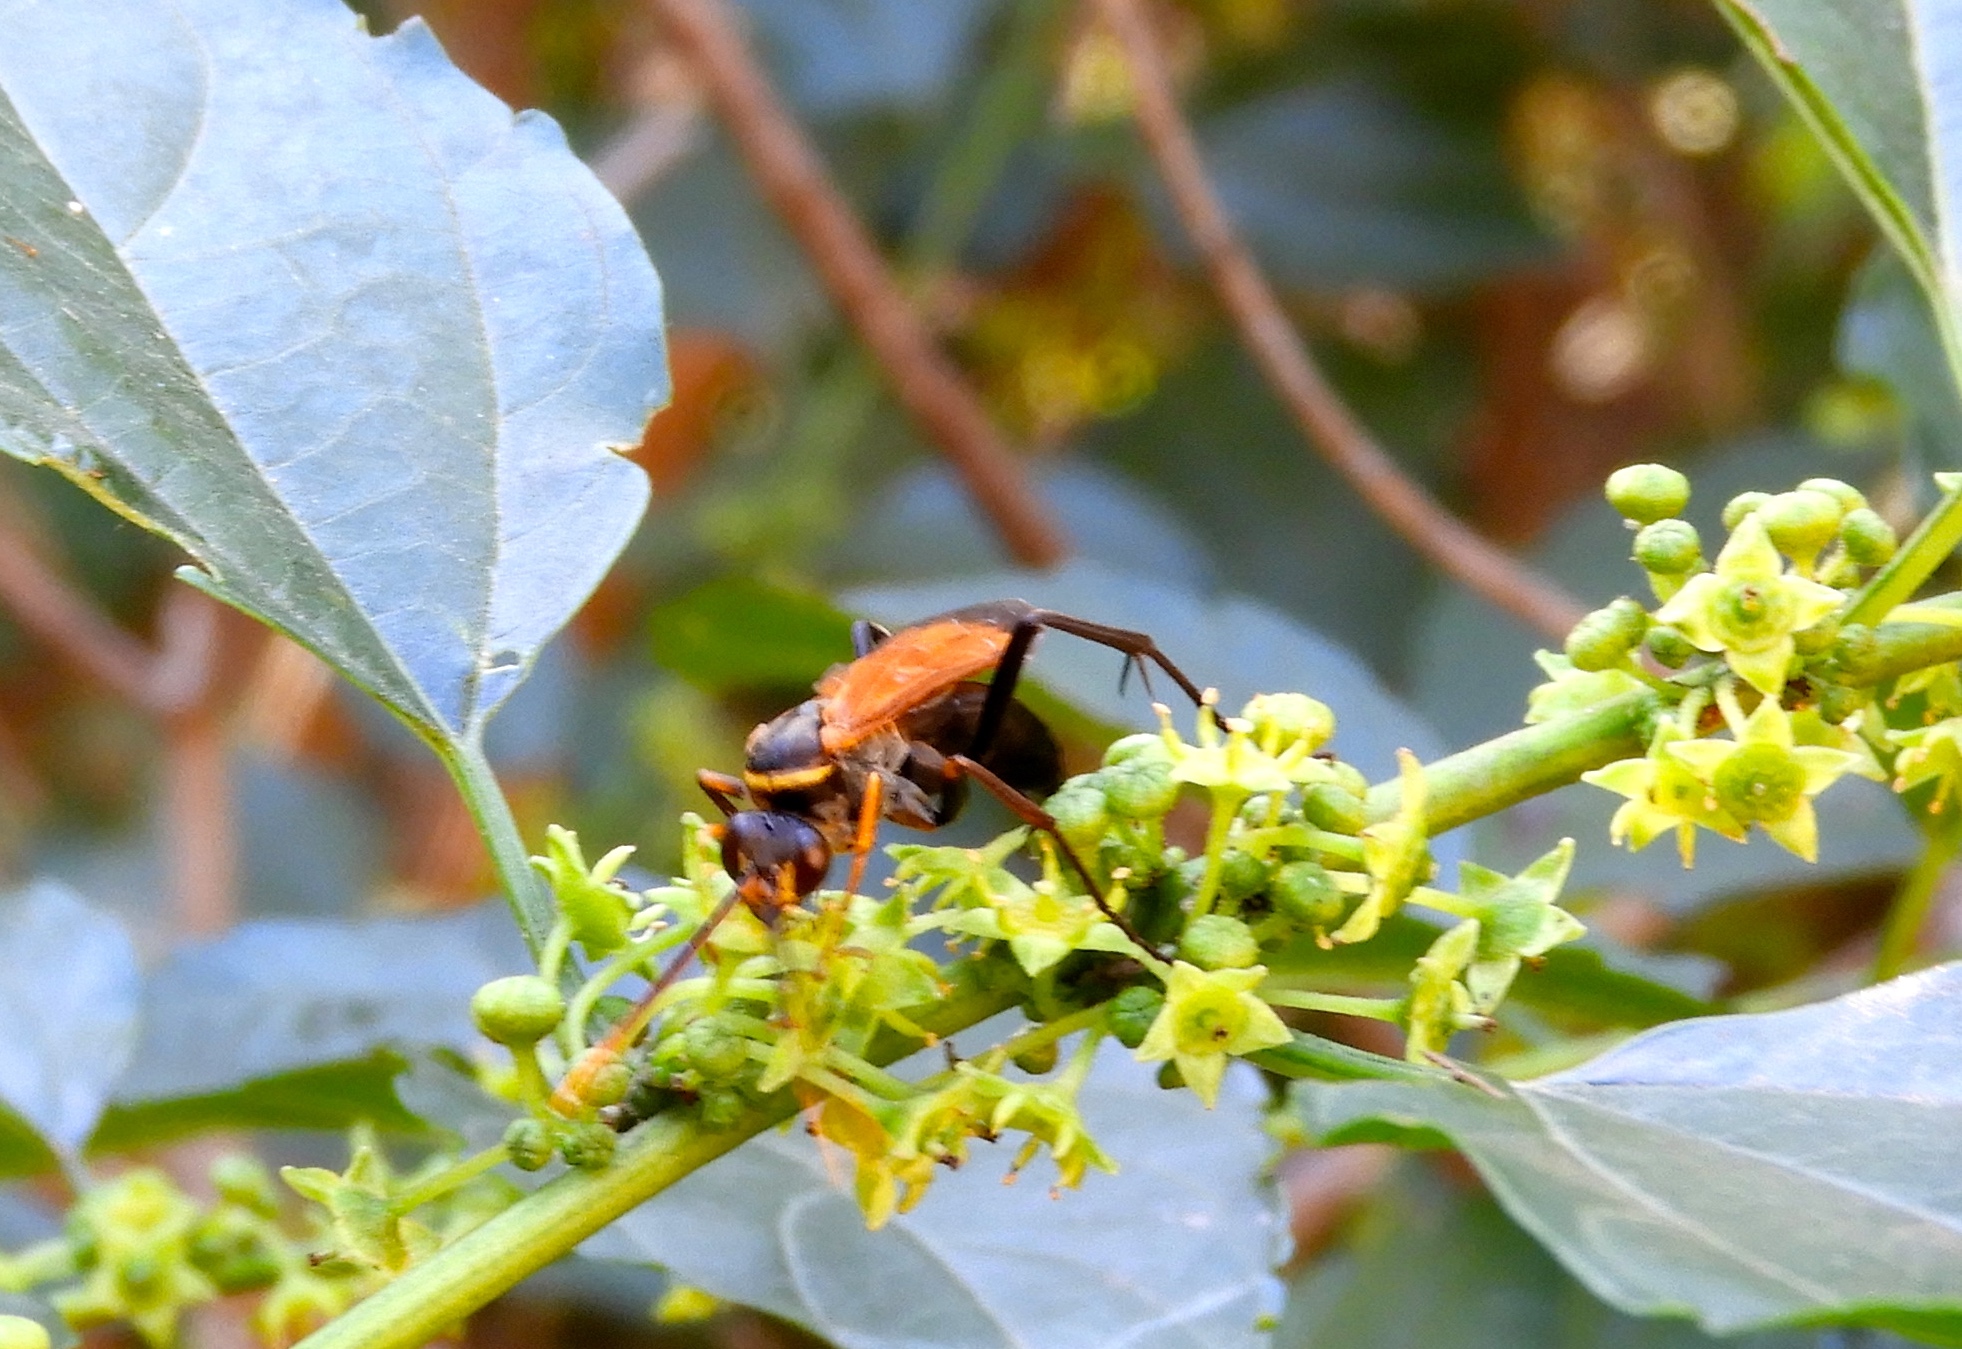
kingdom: Animalia
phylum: Arthropoda
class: Insecta
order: Hymenoptera
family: Pompilidae
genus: Hemipepsis
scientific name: Hemipepsis
